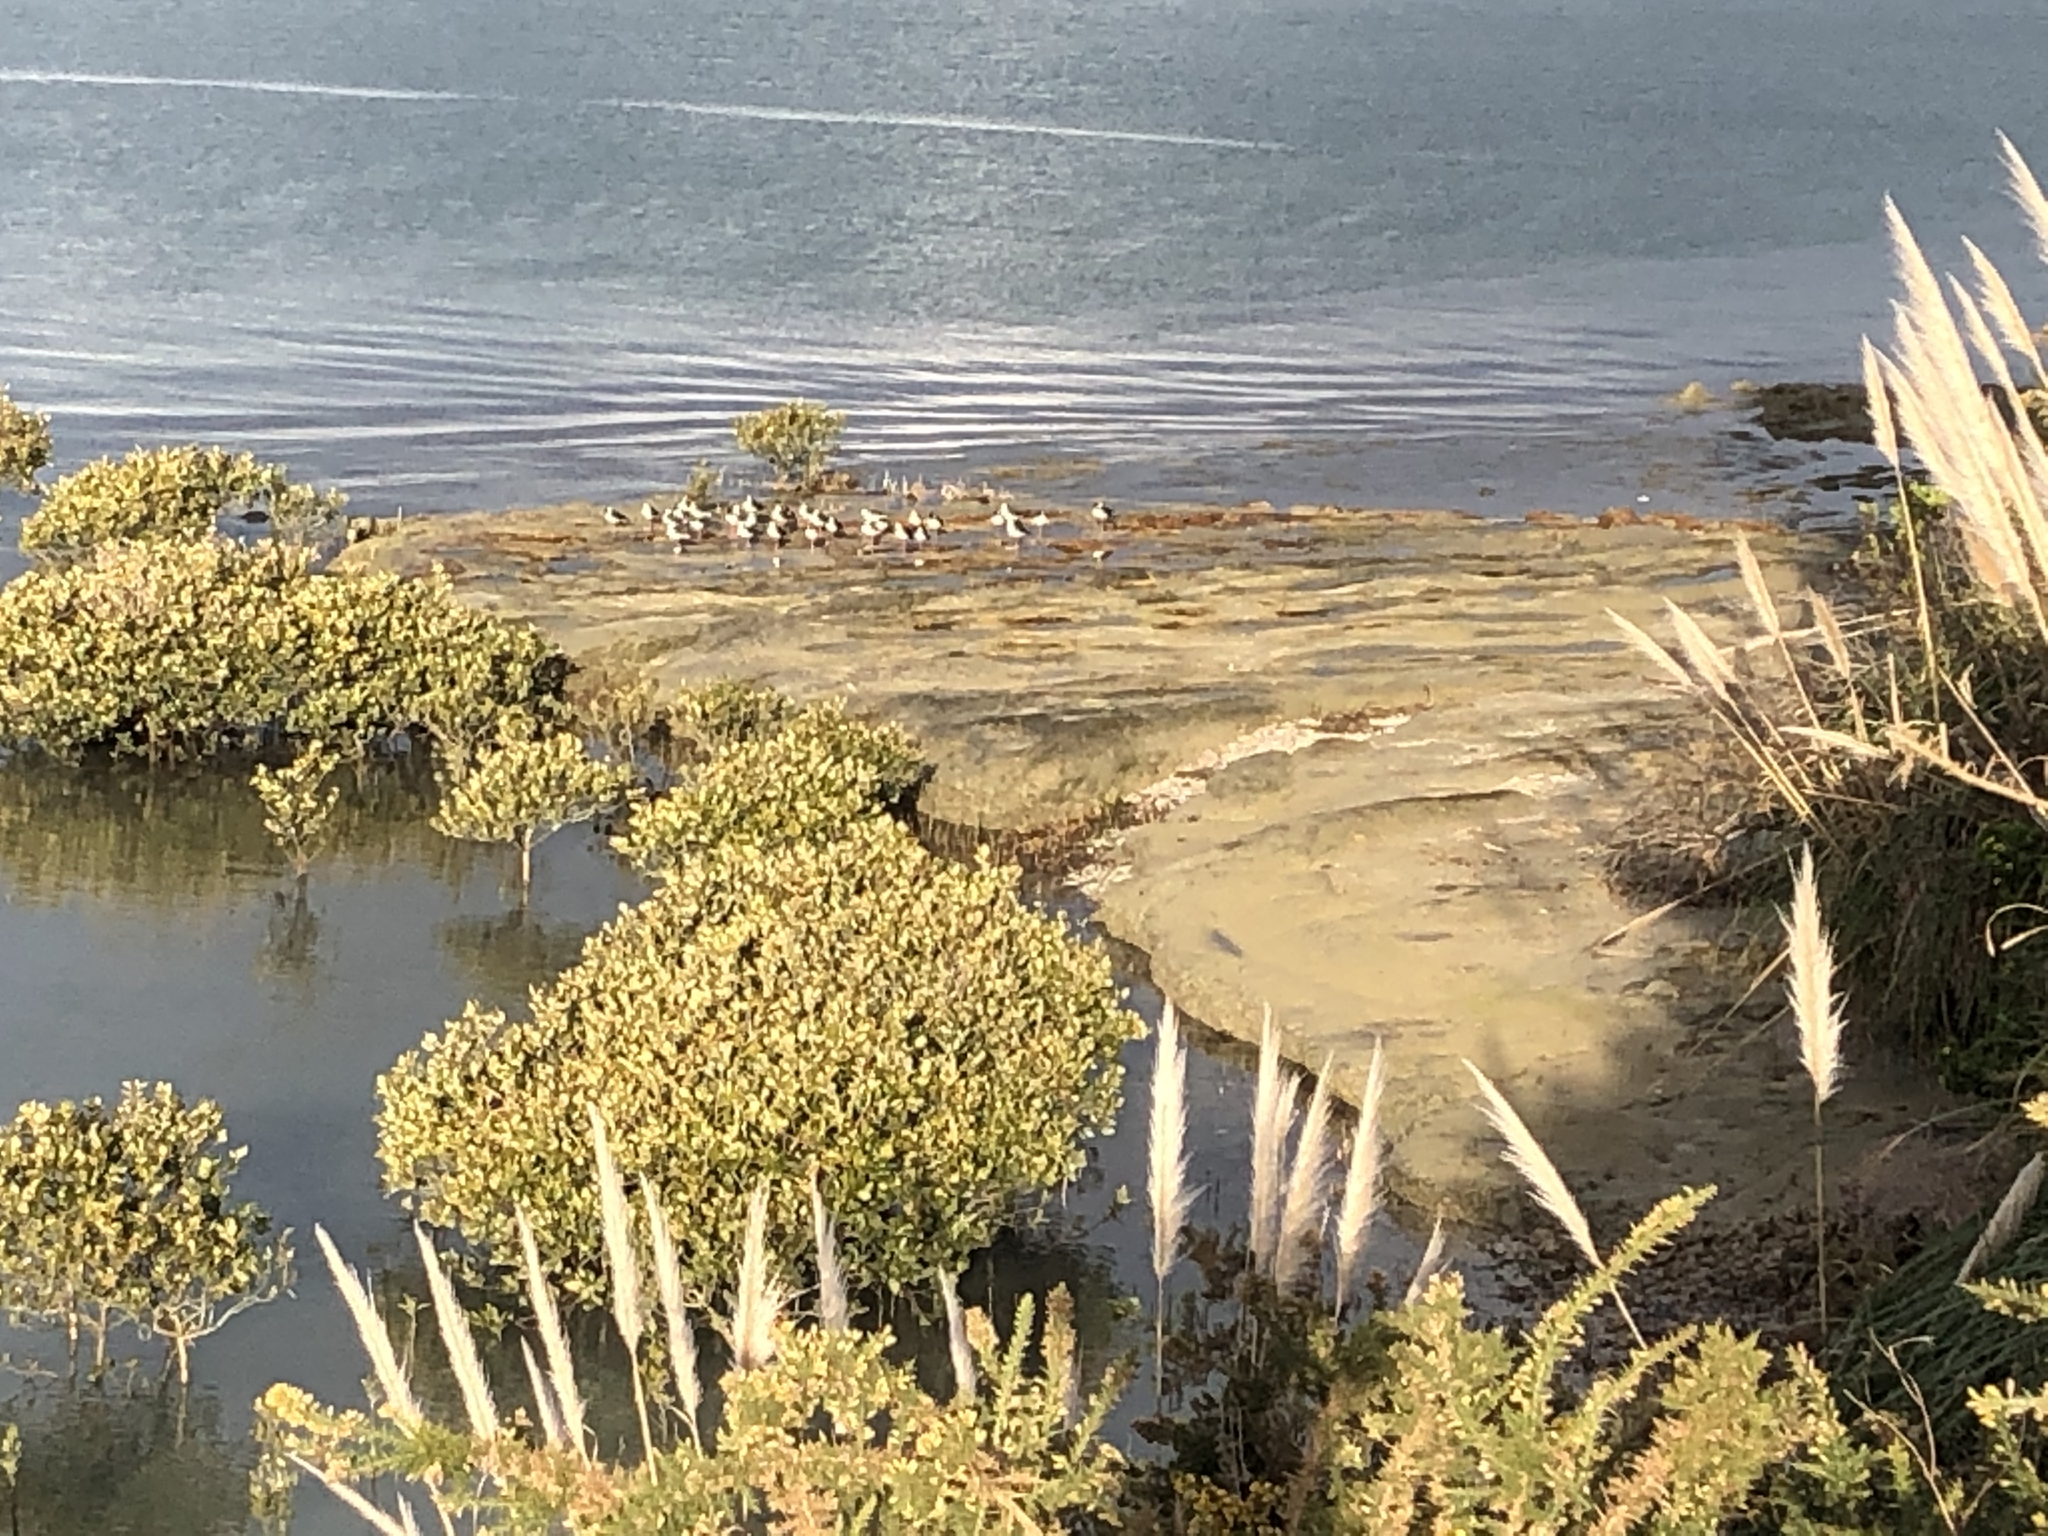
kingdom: Animalia
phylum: Chordata
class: Aves
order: Charadriiformes
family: Recurvirostridae
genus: Himantopus
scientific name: Himantopus leucocephalus
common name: White-headed stilt
